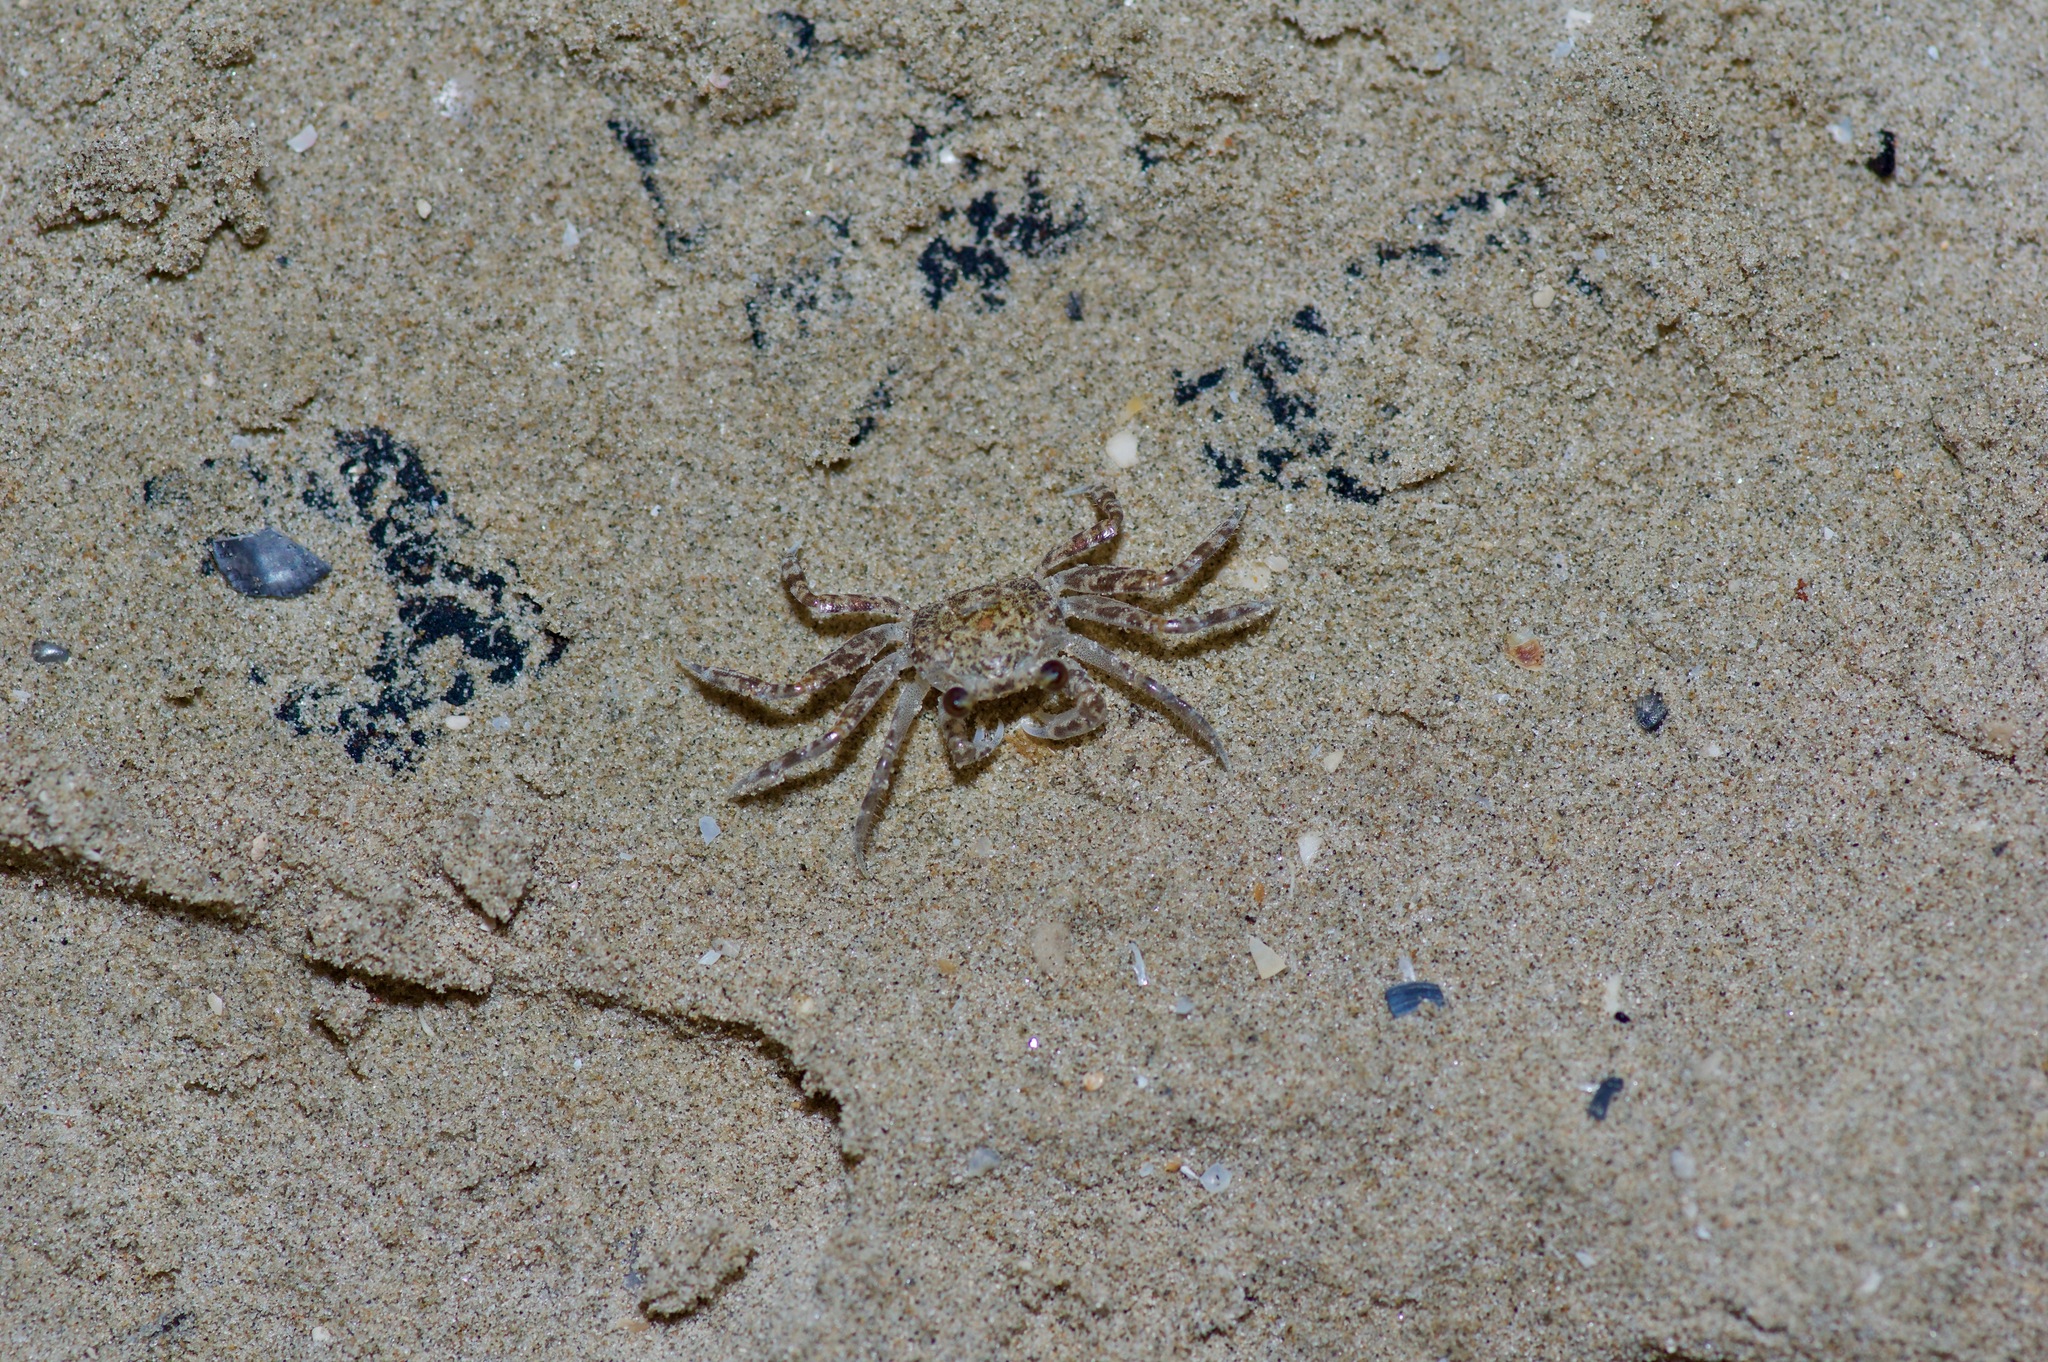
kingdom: Animalia
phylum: Arthropoda
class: Malacostraca
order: Decapoda
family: Ocypodidae
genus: Ocypode
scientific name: Ocypode quadrata
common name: Ghost crab
